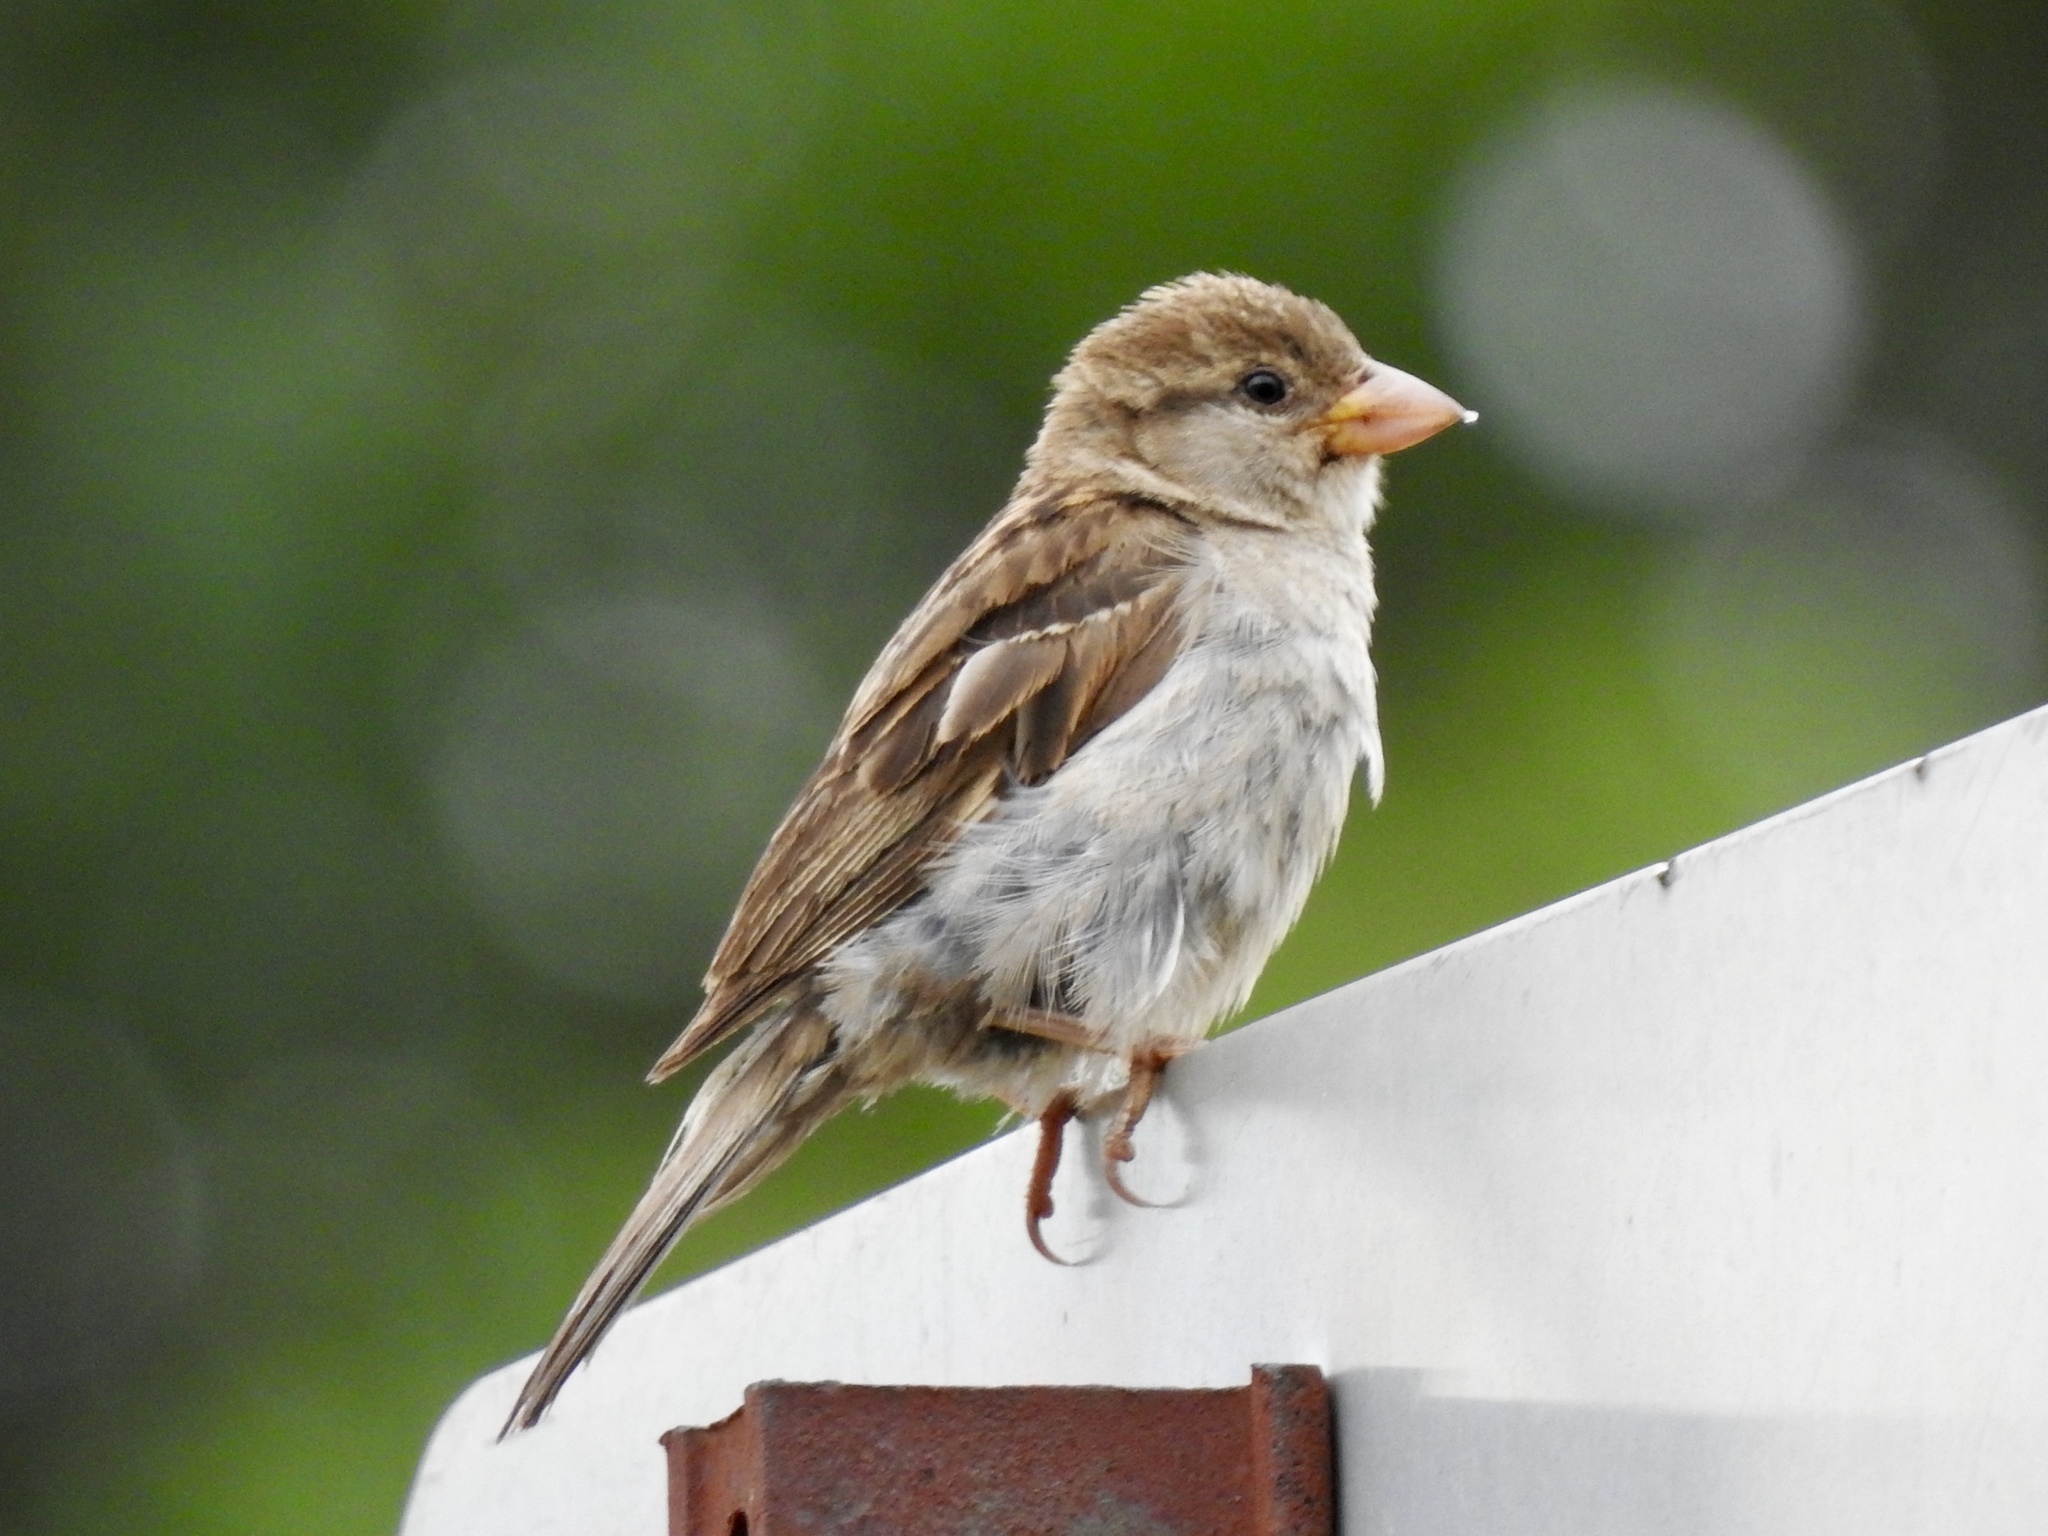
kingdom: Animalia
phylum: Chordata
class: Aves
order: Passeriformes
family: Passeridae
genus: Passer
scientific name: Passer domesticus
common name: House sparrow
